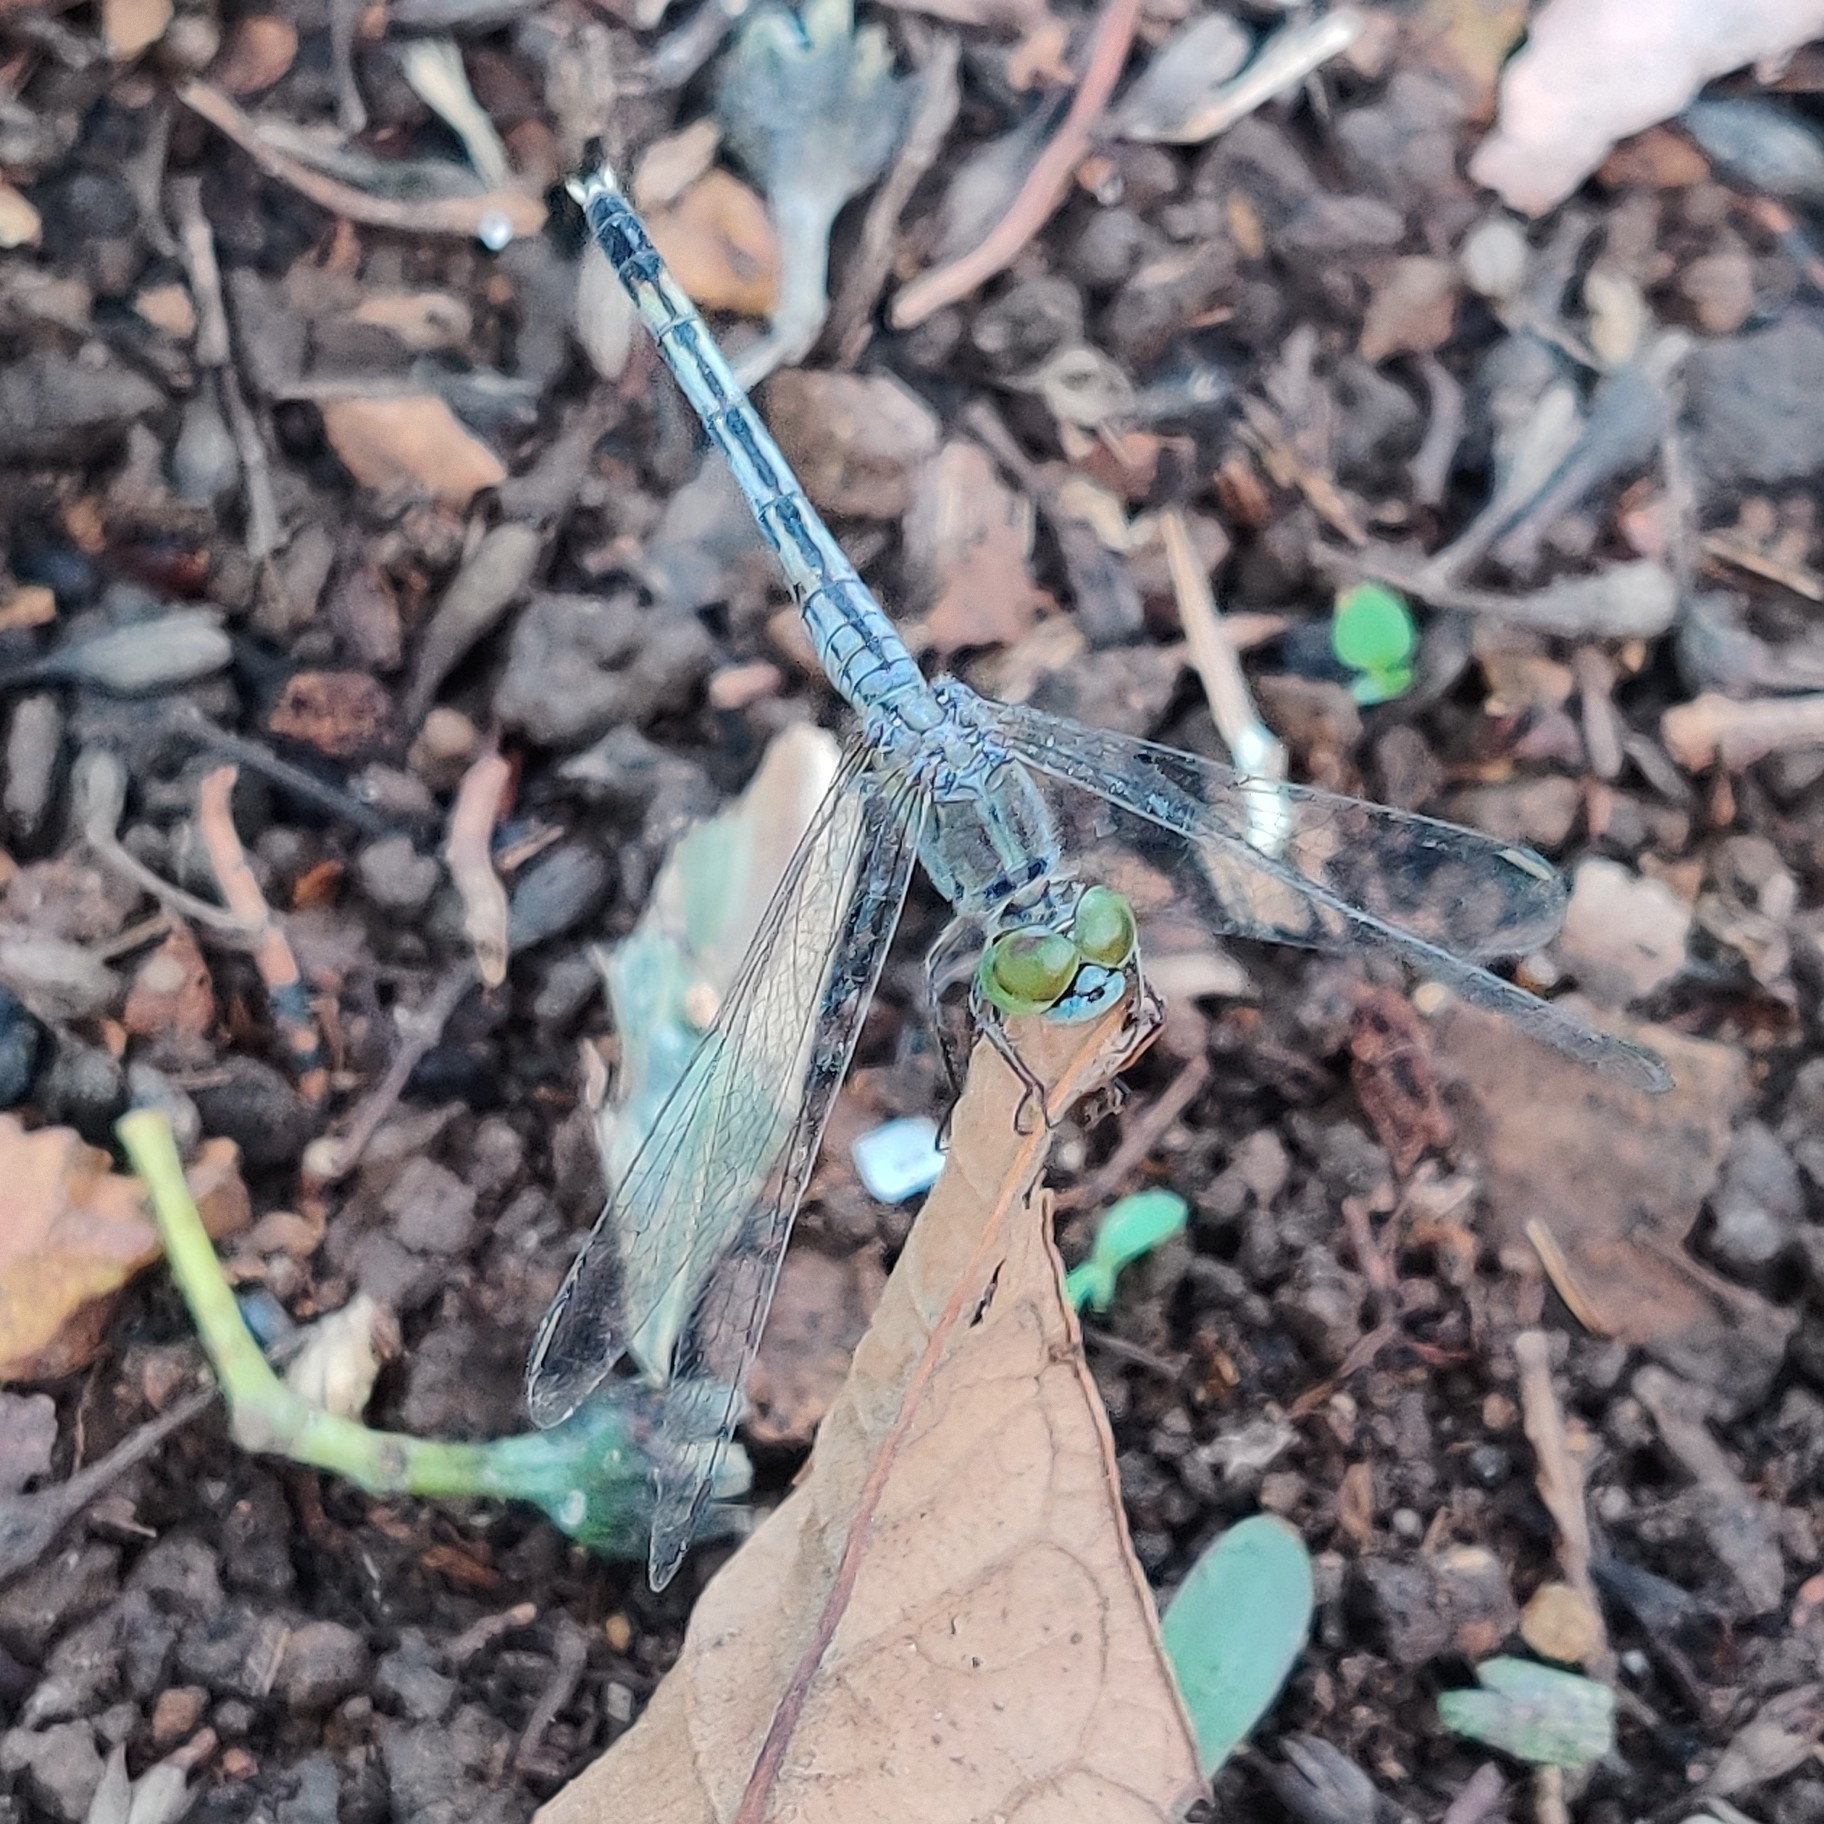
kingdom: Animalia
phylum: Arthropoda
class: Insecta
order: Odonata
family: Libellulidae
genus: Diplacodes
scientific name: Diplacodes trivialis
